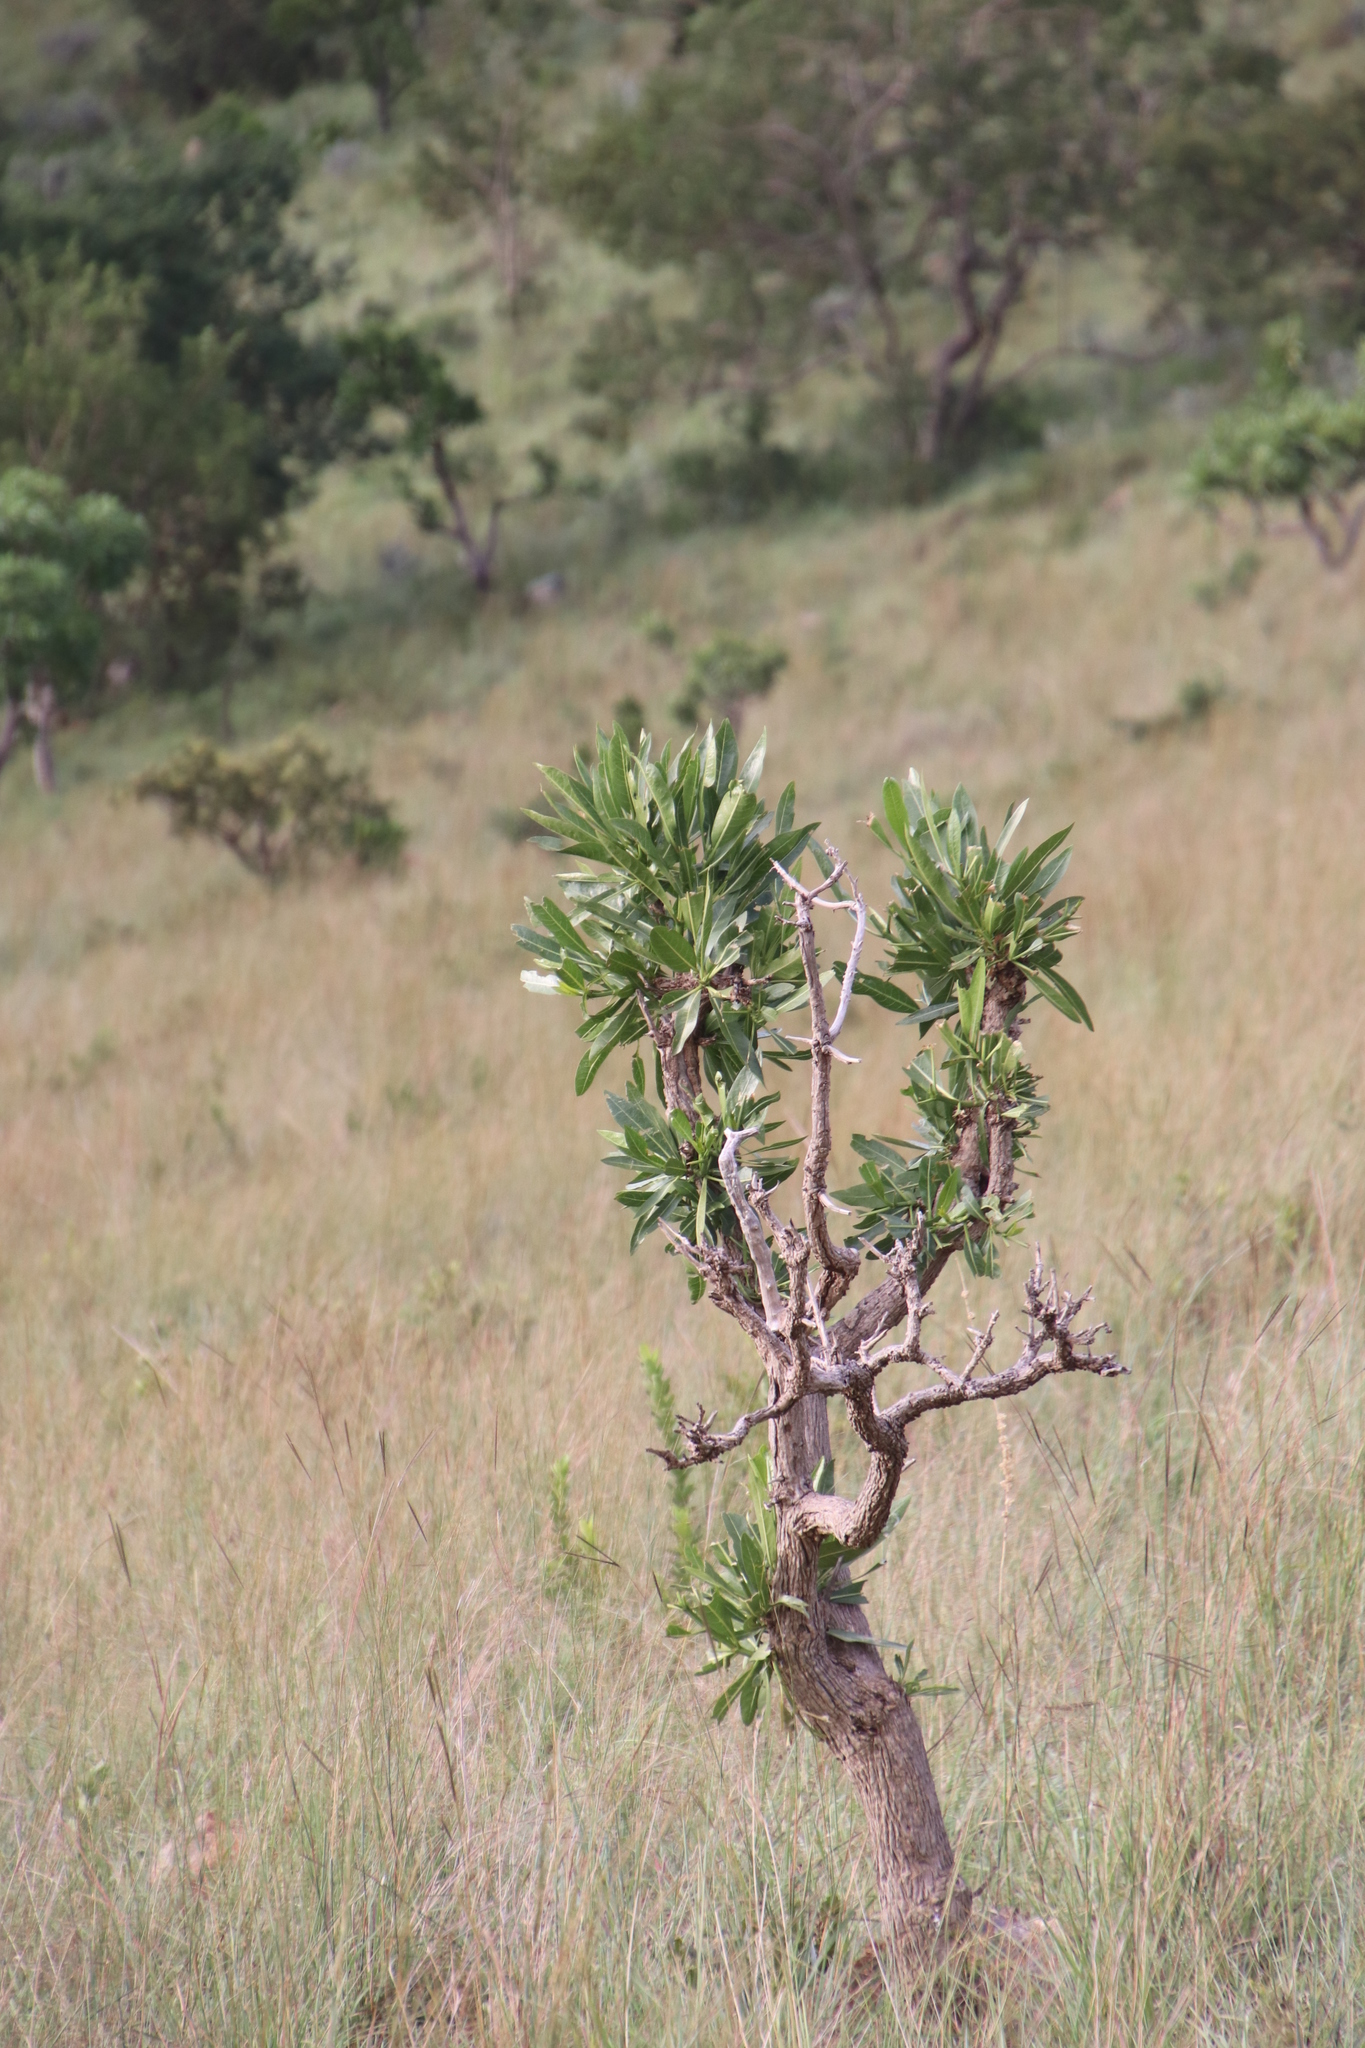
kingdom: Plantae
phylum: Tracheophyta
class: Magnoliopsida
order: Gentianales
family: Rubiaceae
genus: Pavetta
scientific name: Pavetta edentula
